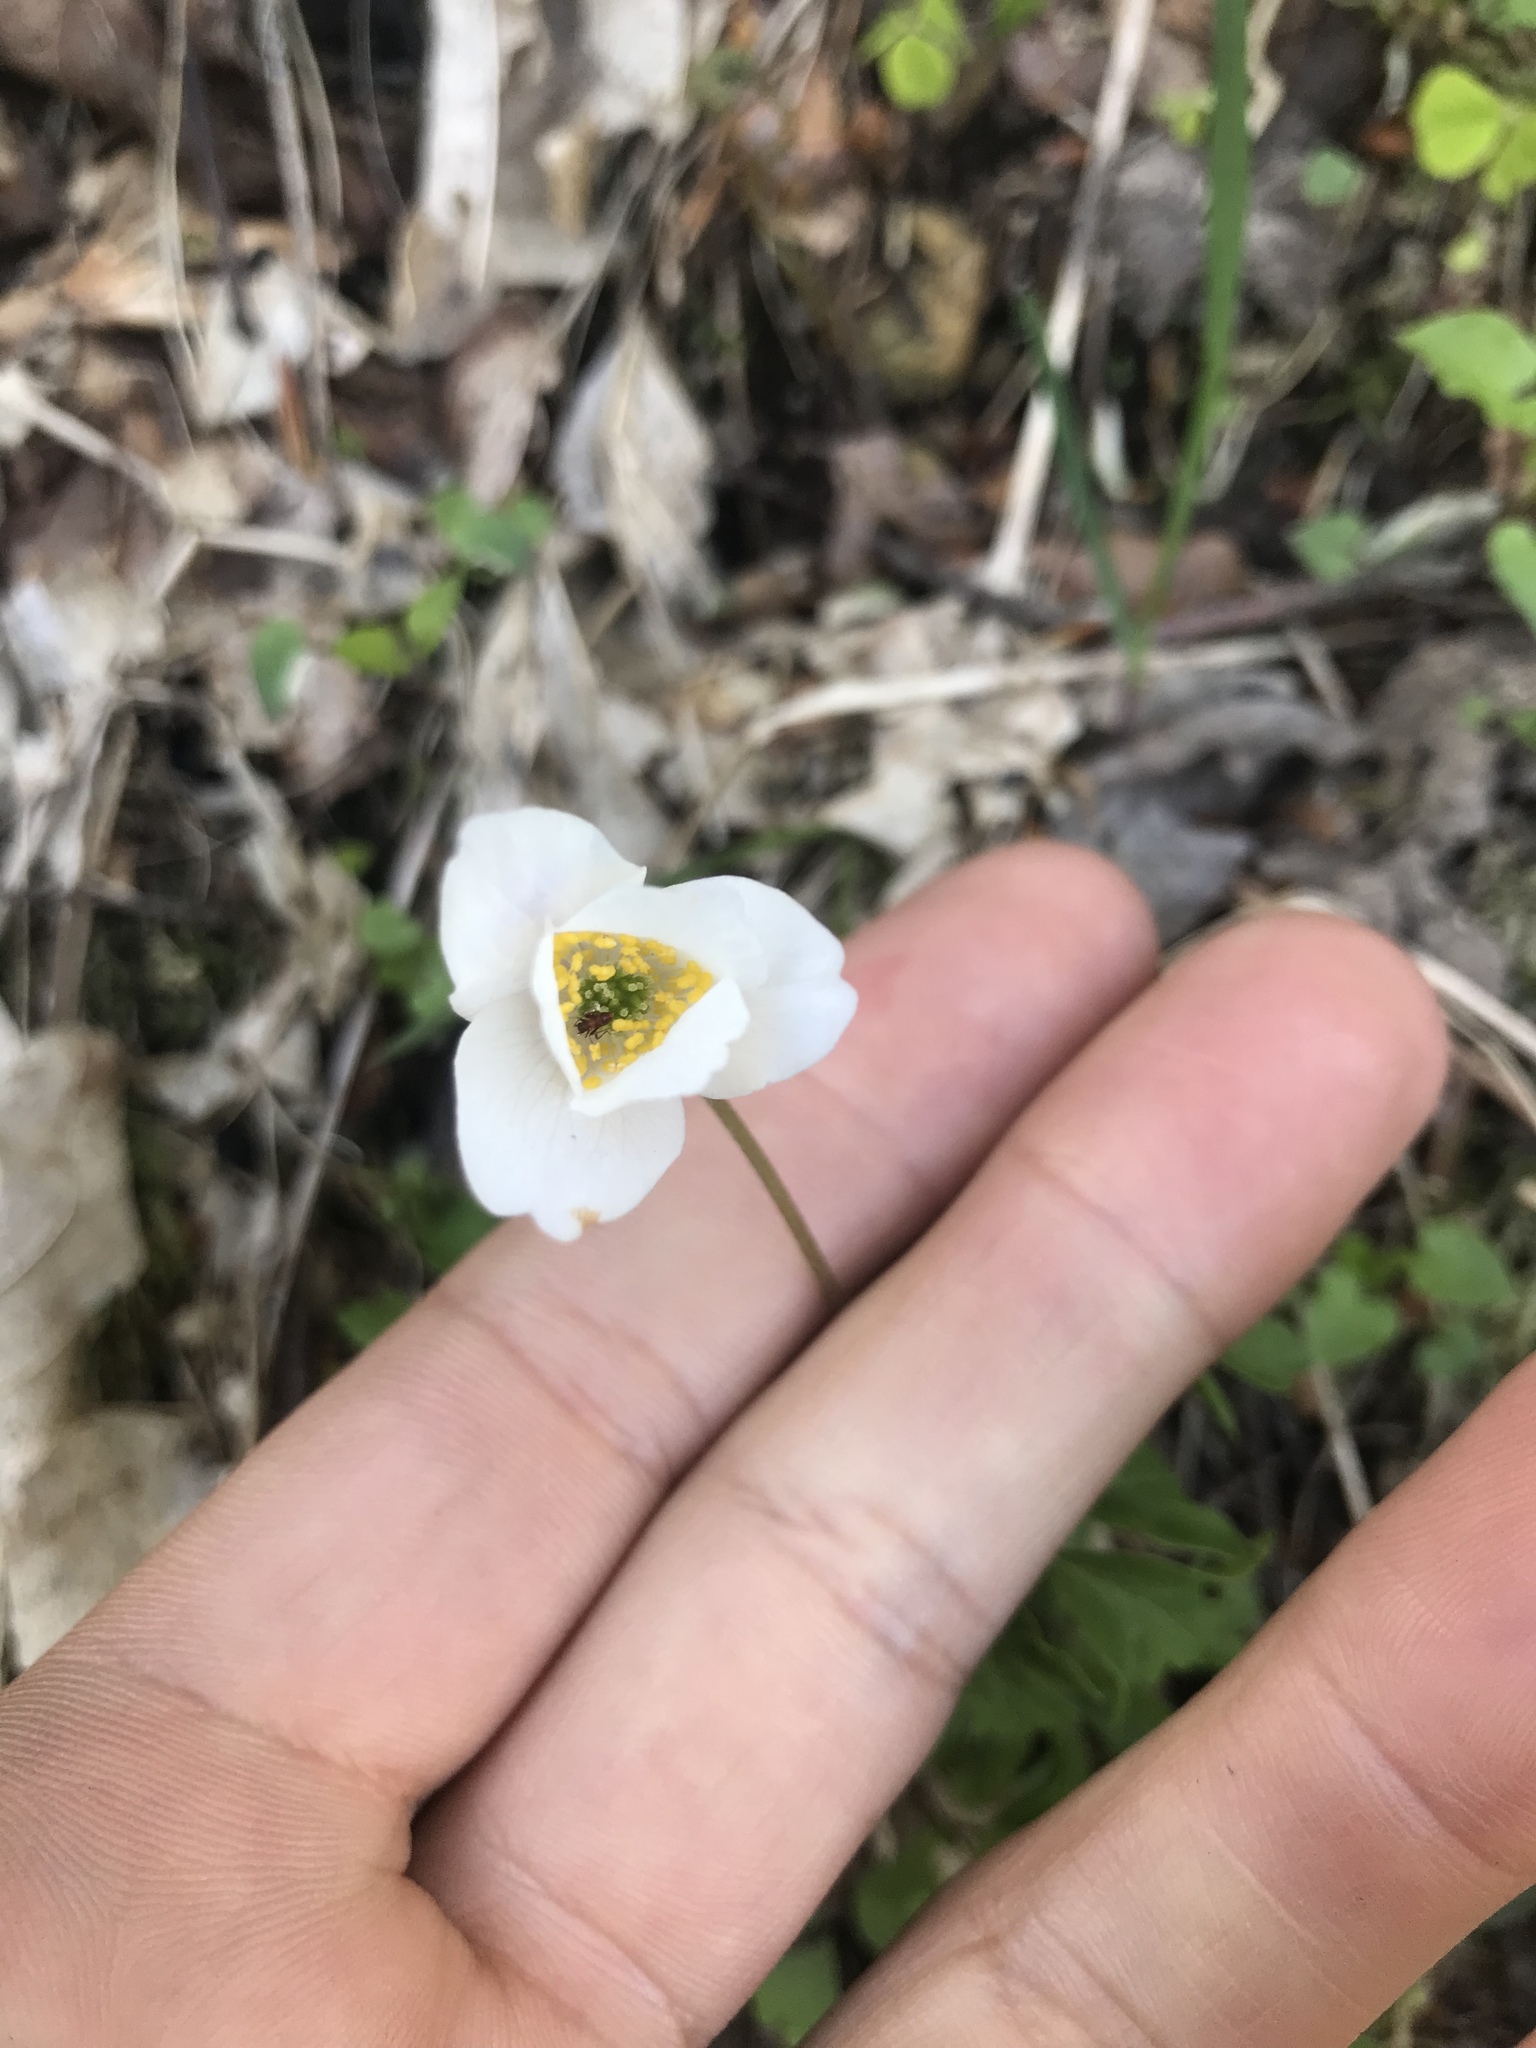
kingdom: Plantae
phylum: Tracheophyta
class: Magnoliopsida
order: Ranunculales
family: Ranunculaceae
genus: Anemone
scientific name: Anemone nemorosa
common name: Wood anemone
